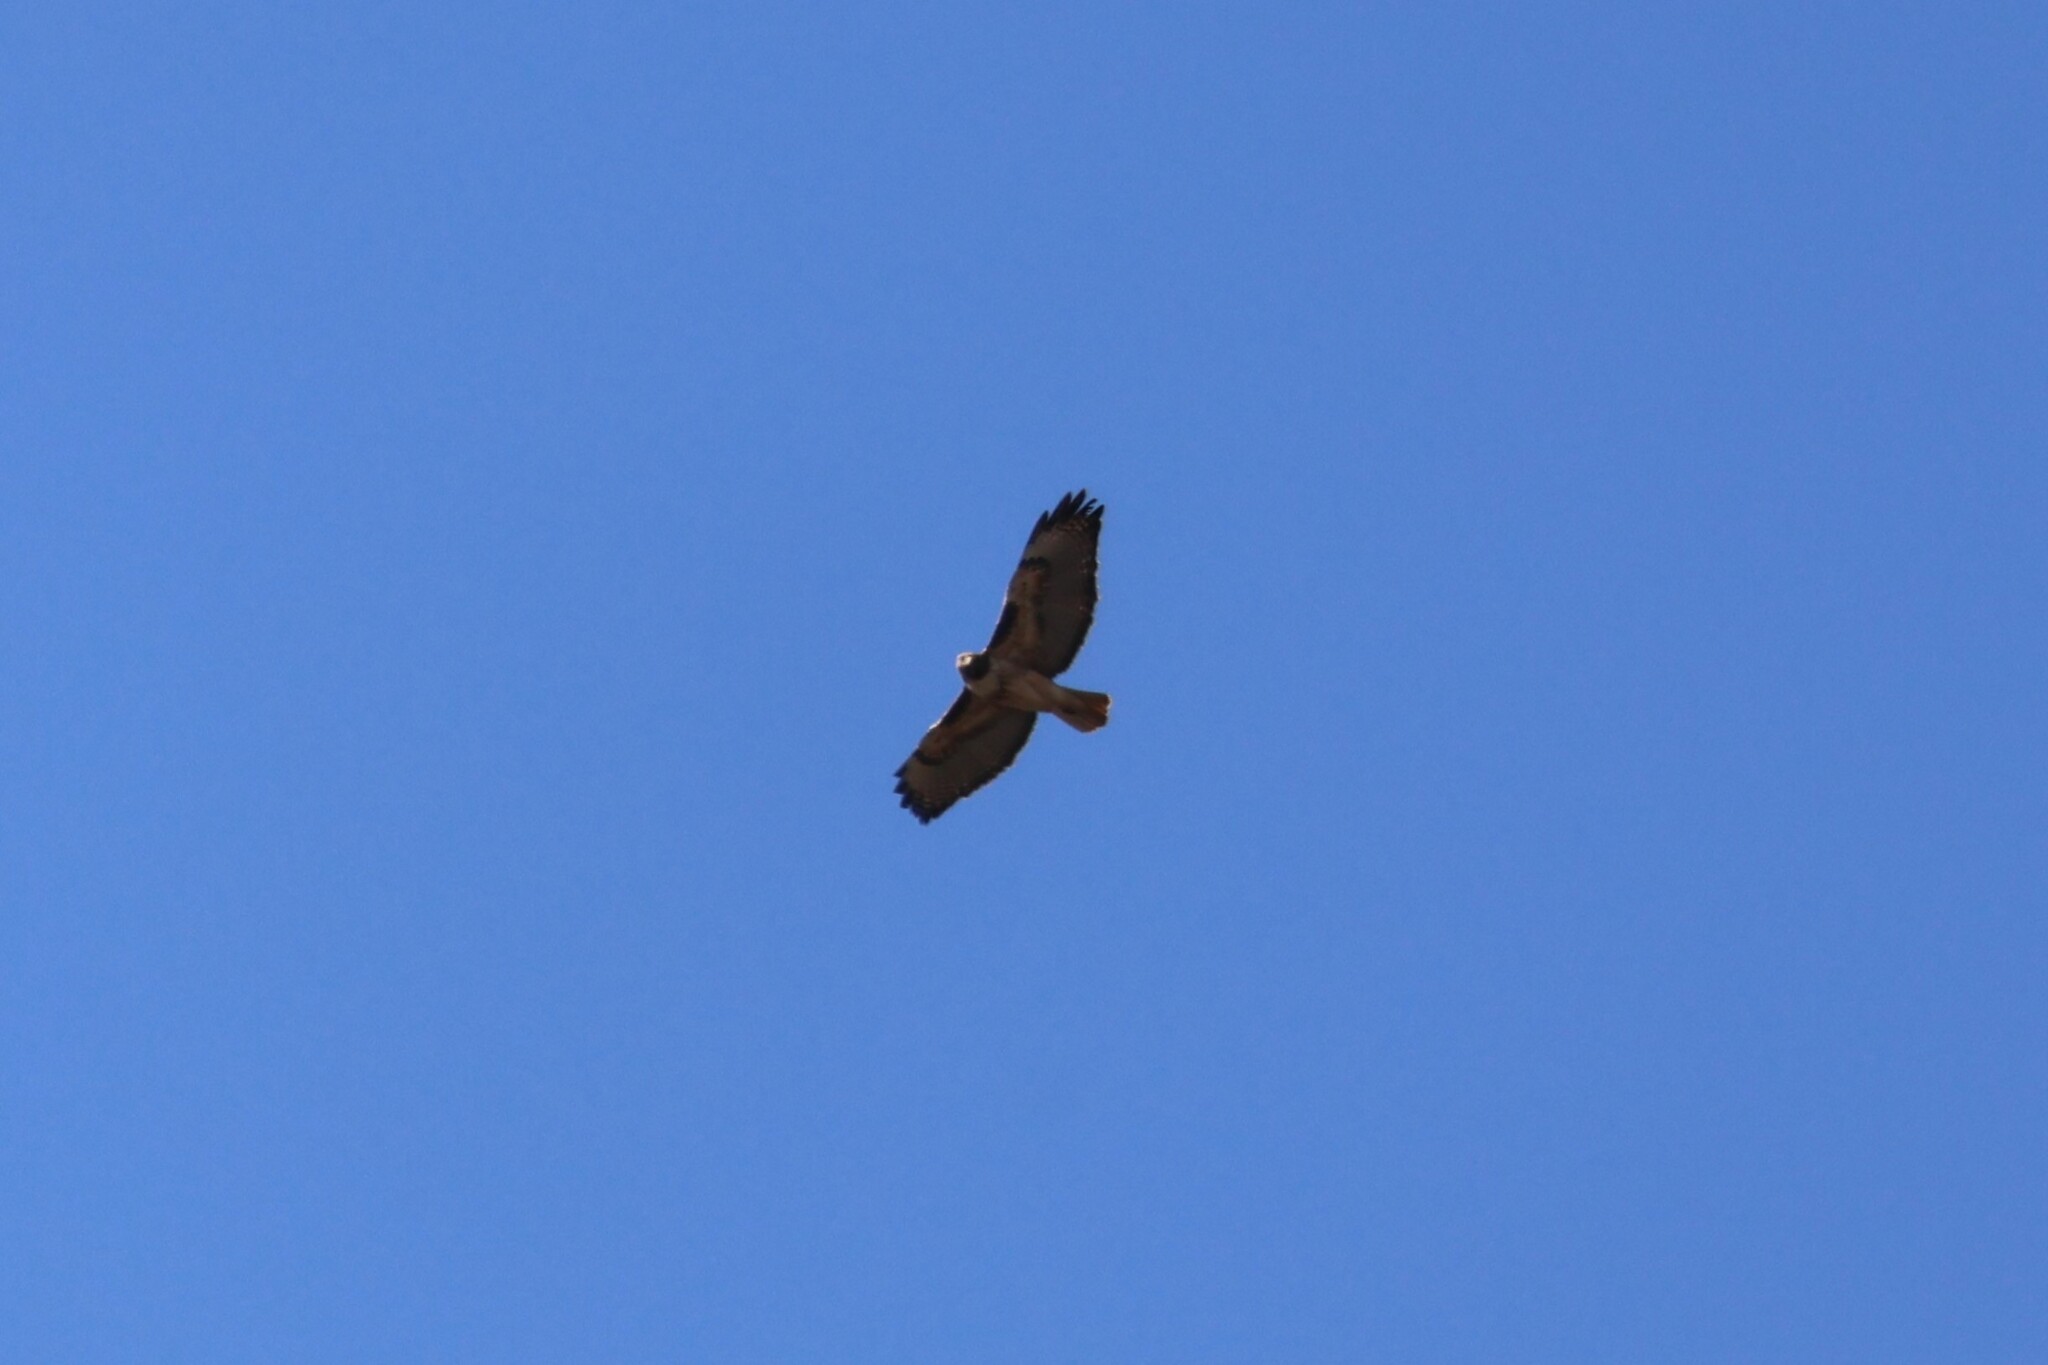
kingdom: Animalia
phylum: Chordata
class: Aves
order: Accipitriformes
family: Accipitridae
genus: Buteo
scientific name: Buteo jamaicensis
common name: Red-tailed hawk
